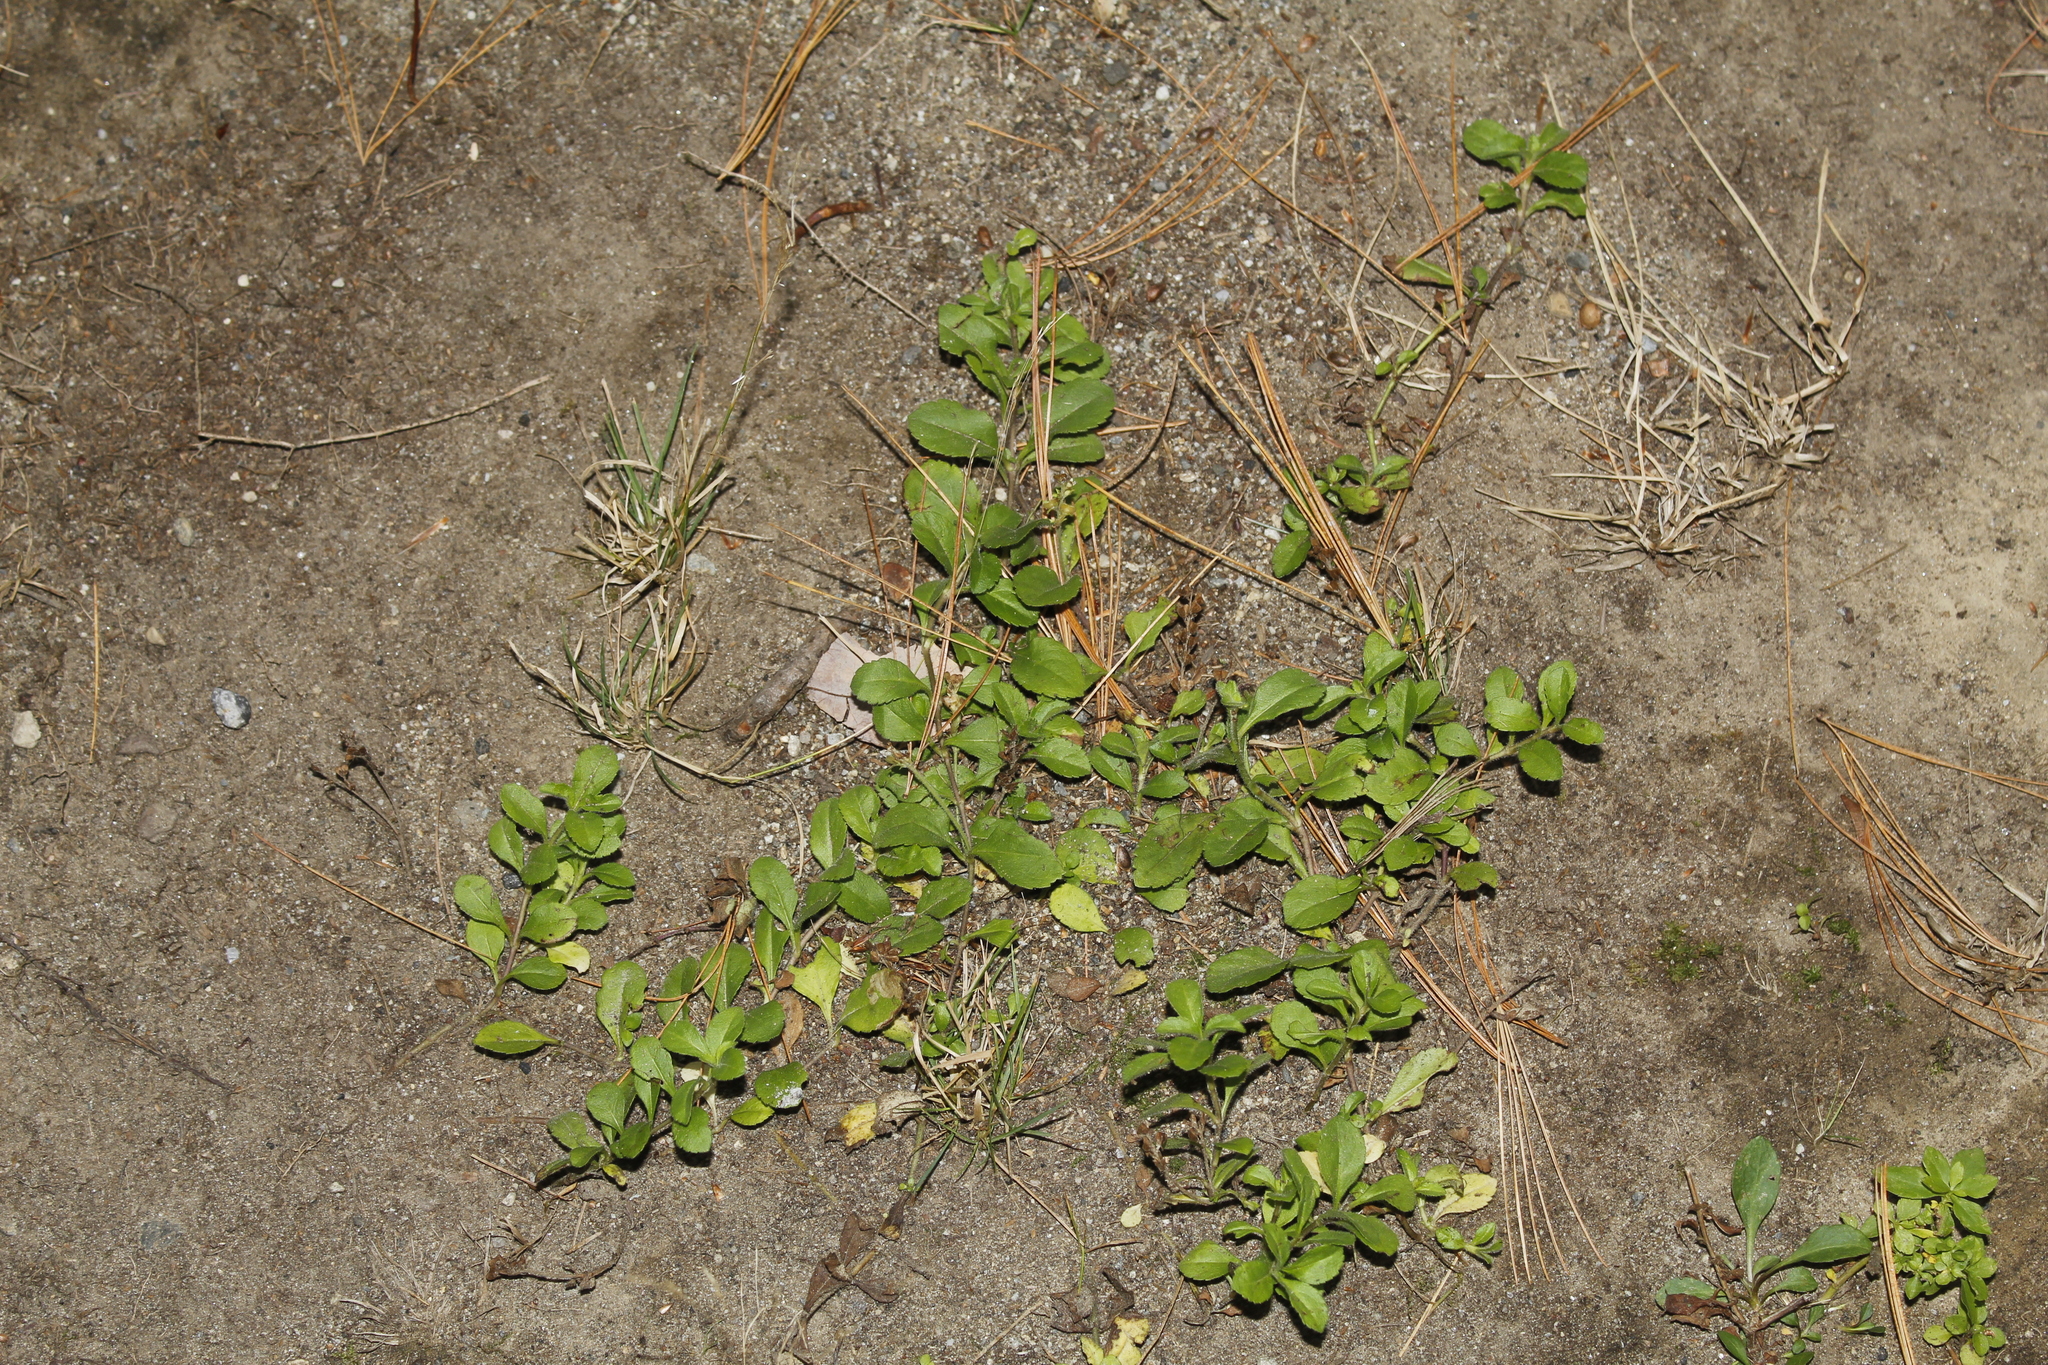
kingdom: Plantae
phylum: Tracheophyta
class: Magnoliopsida
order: Lamiales
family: Plantaginaceae
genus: Veronica
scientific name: Veronica officinalis
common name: Common speedwell
